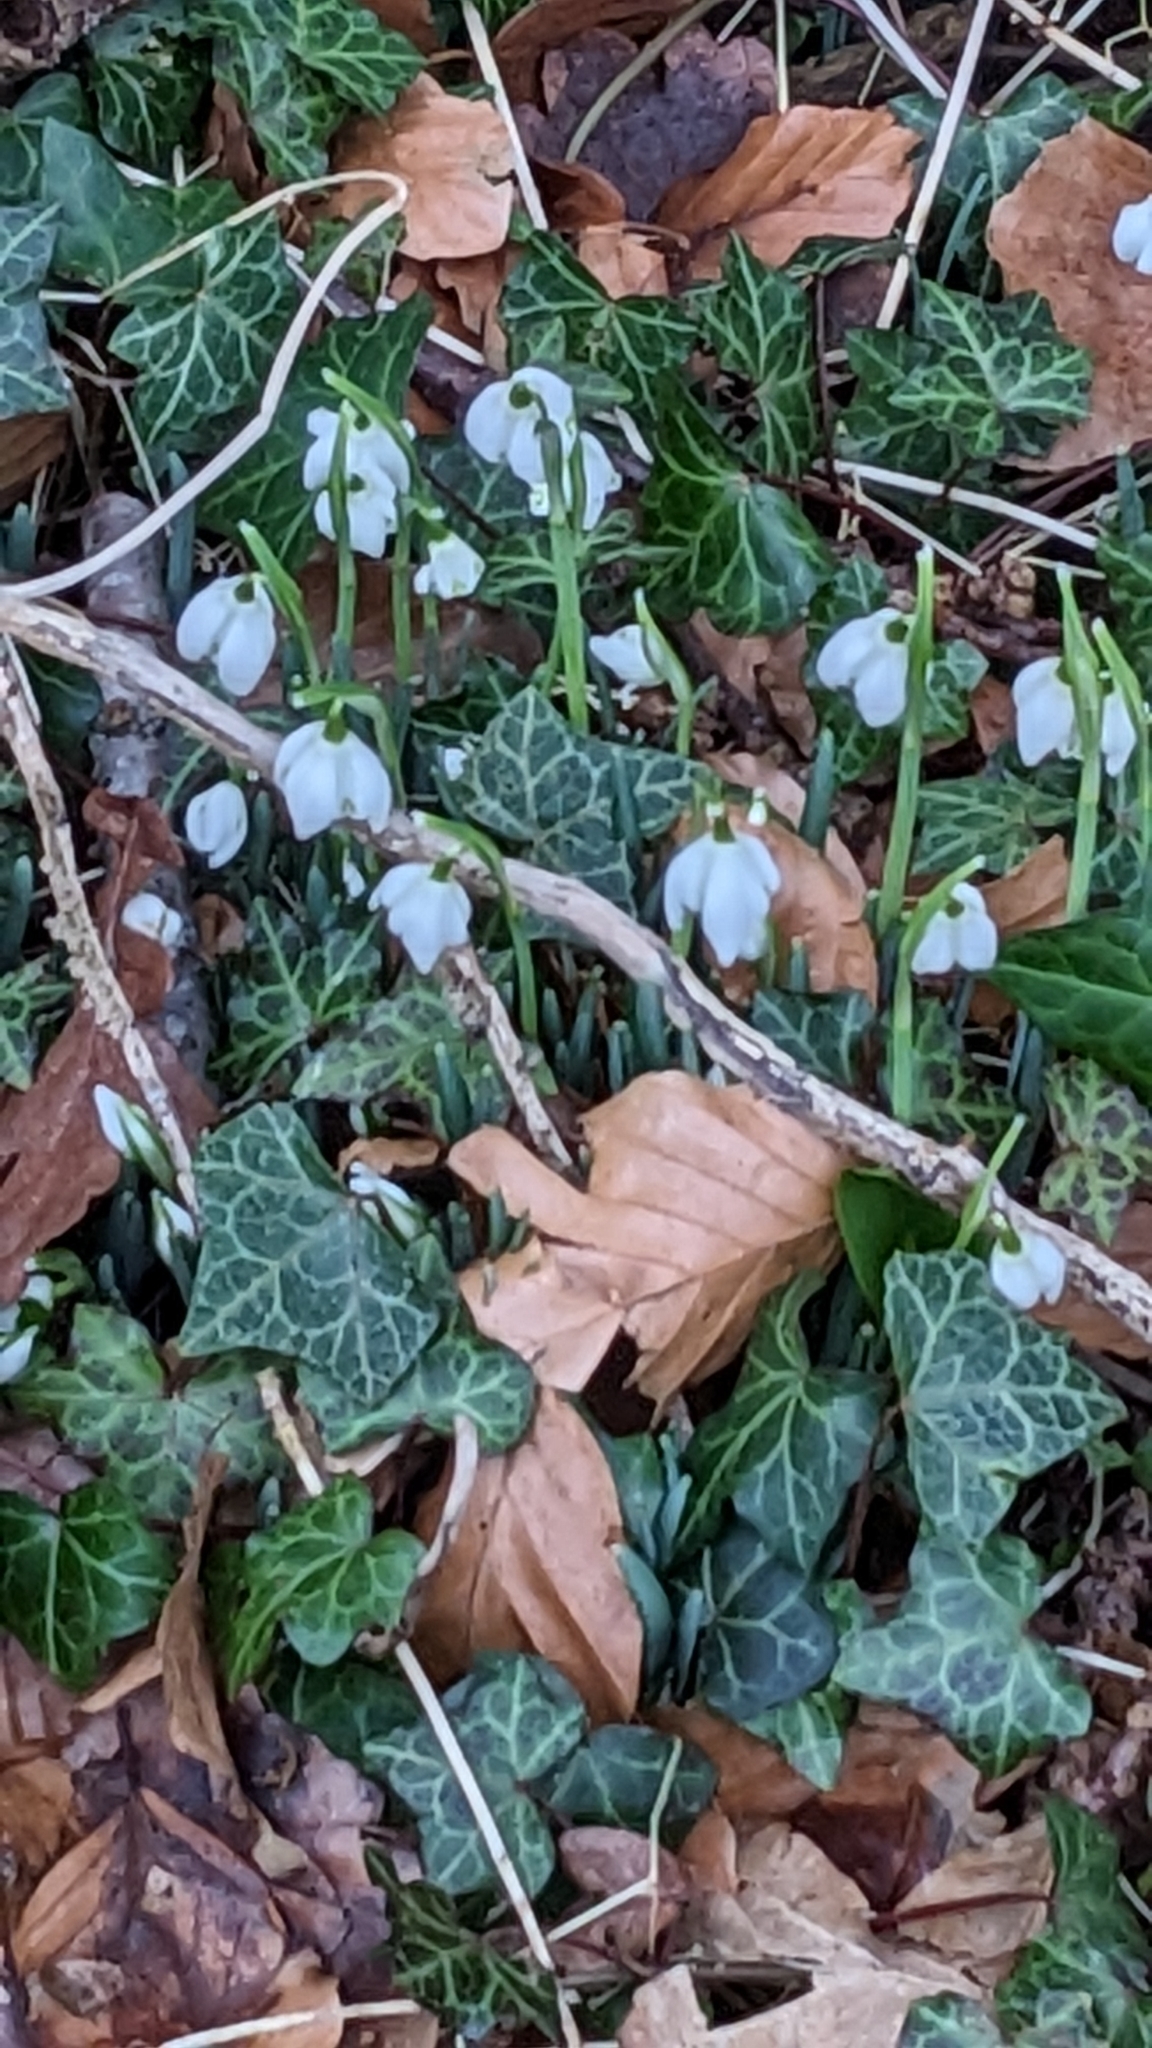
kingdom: Plantae
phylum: Tracheophyta
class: Liliopsida
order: Asparagales
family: Amaryllidaceae
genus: Galanthus
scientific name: Galanthus nivalis
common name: Snowdrop
